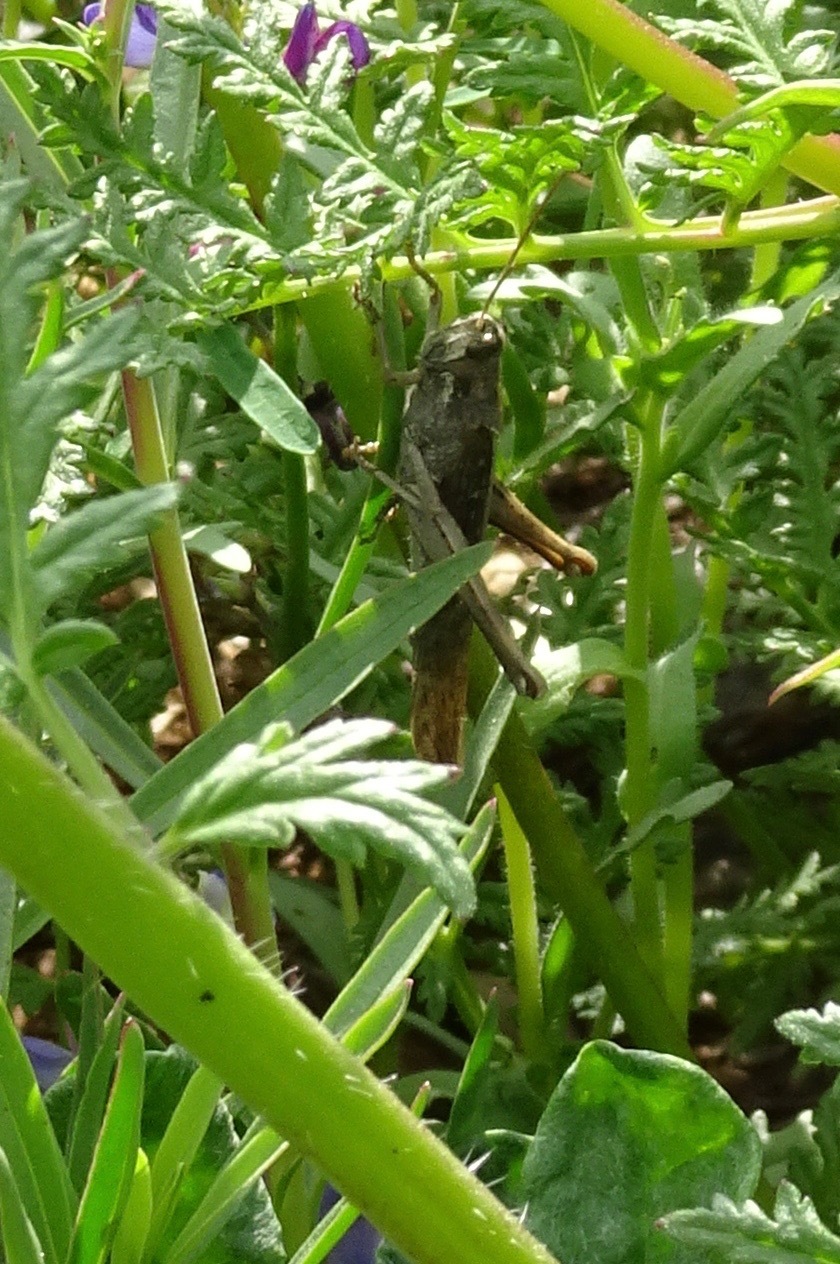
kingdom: Animalia
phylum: Arthropoda
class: Insecta
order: Orthoptera
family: Acrididae
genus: Schistocerca
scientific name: Schistocerca nitens
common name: Vagrant grasshopper
